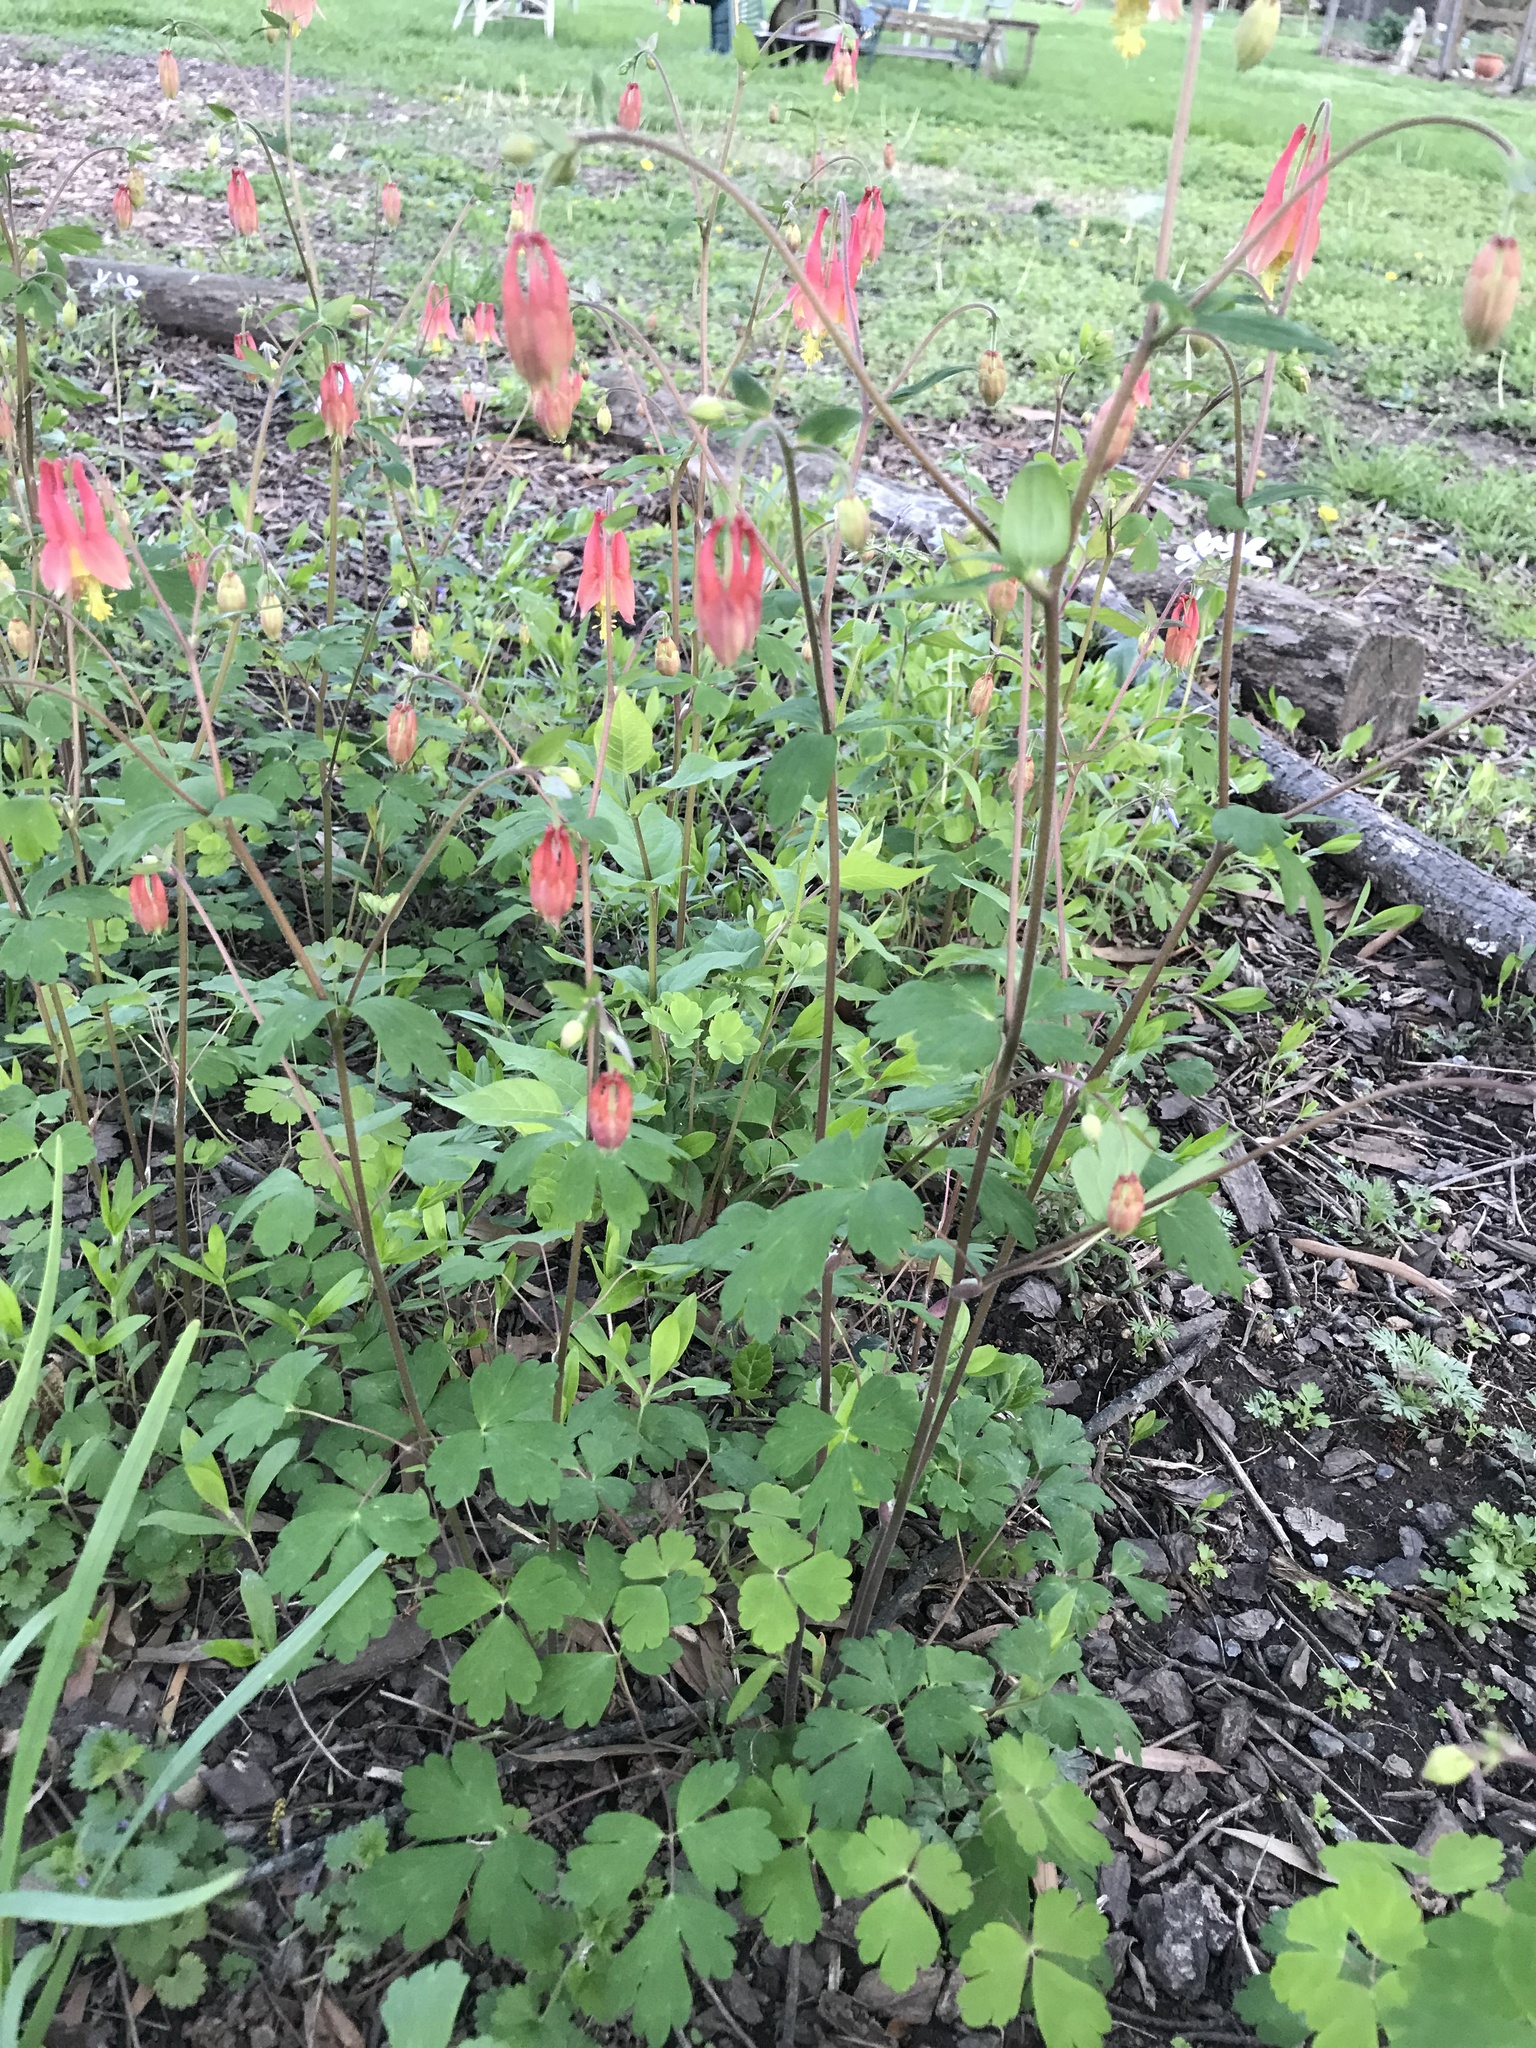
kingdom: Plantae
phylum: Tracheophyta
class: Magnoliopsida
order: Ranunculales
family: Ranunculaceae
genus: Aquilegia
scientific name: Aquilegia canadensis
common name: American columbine
